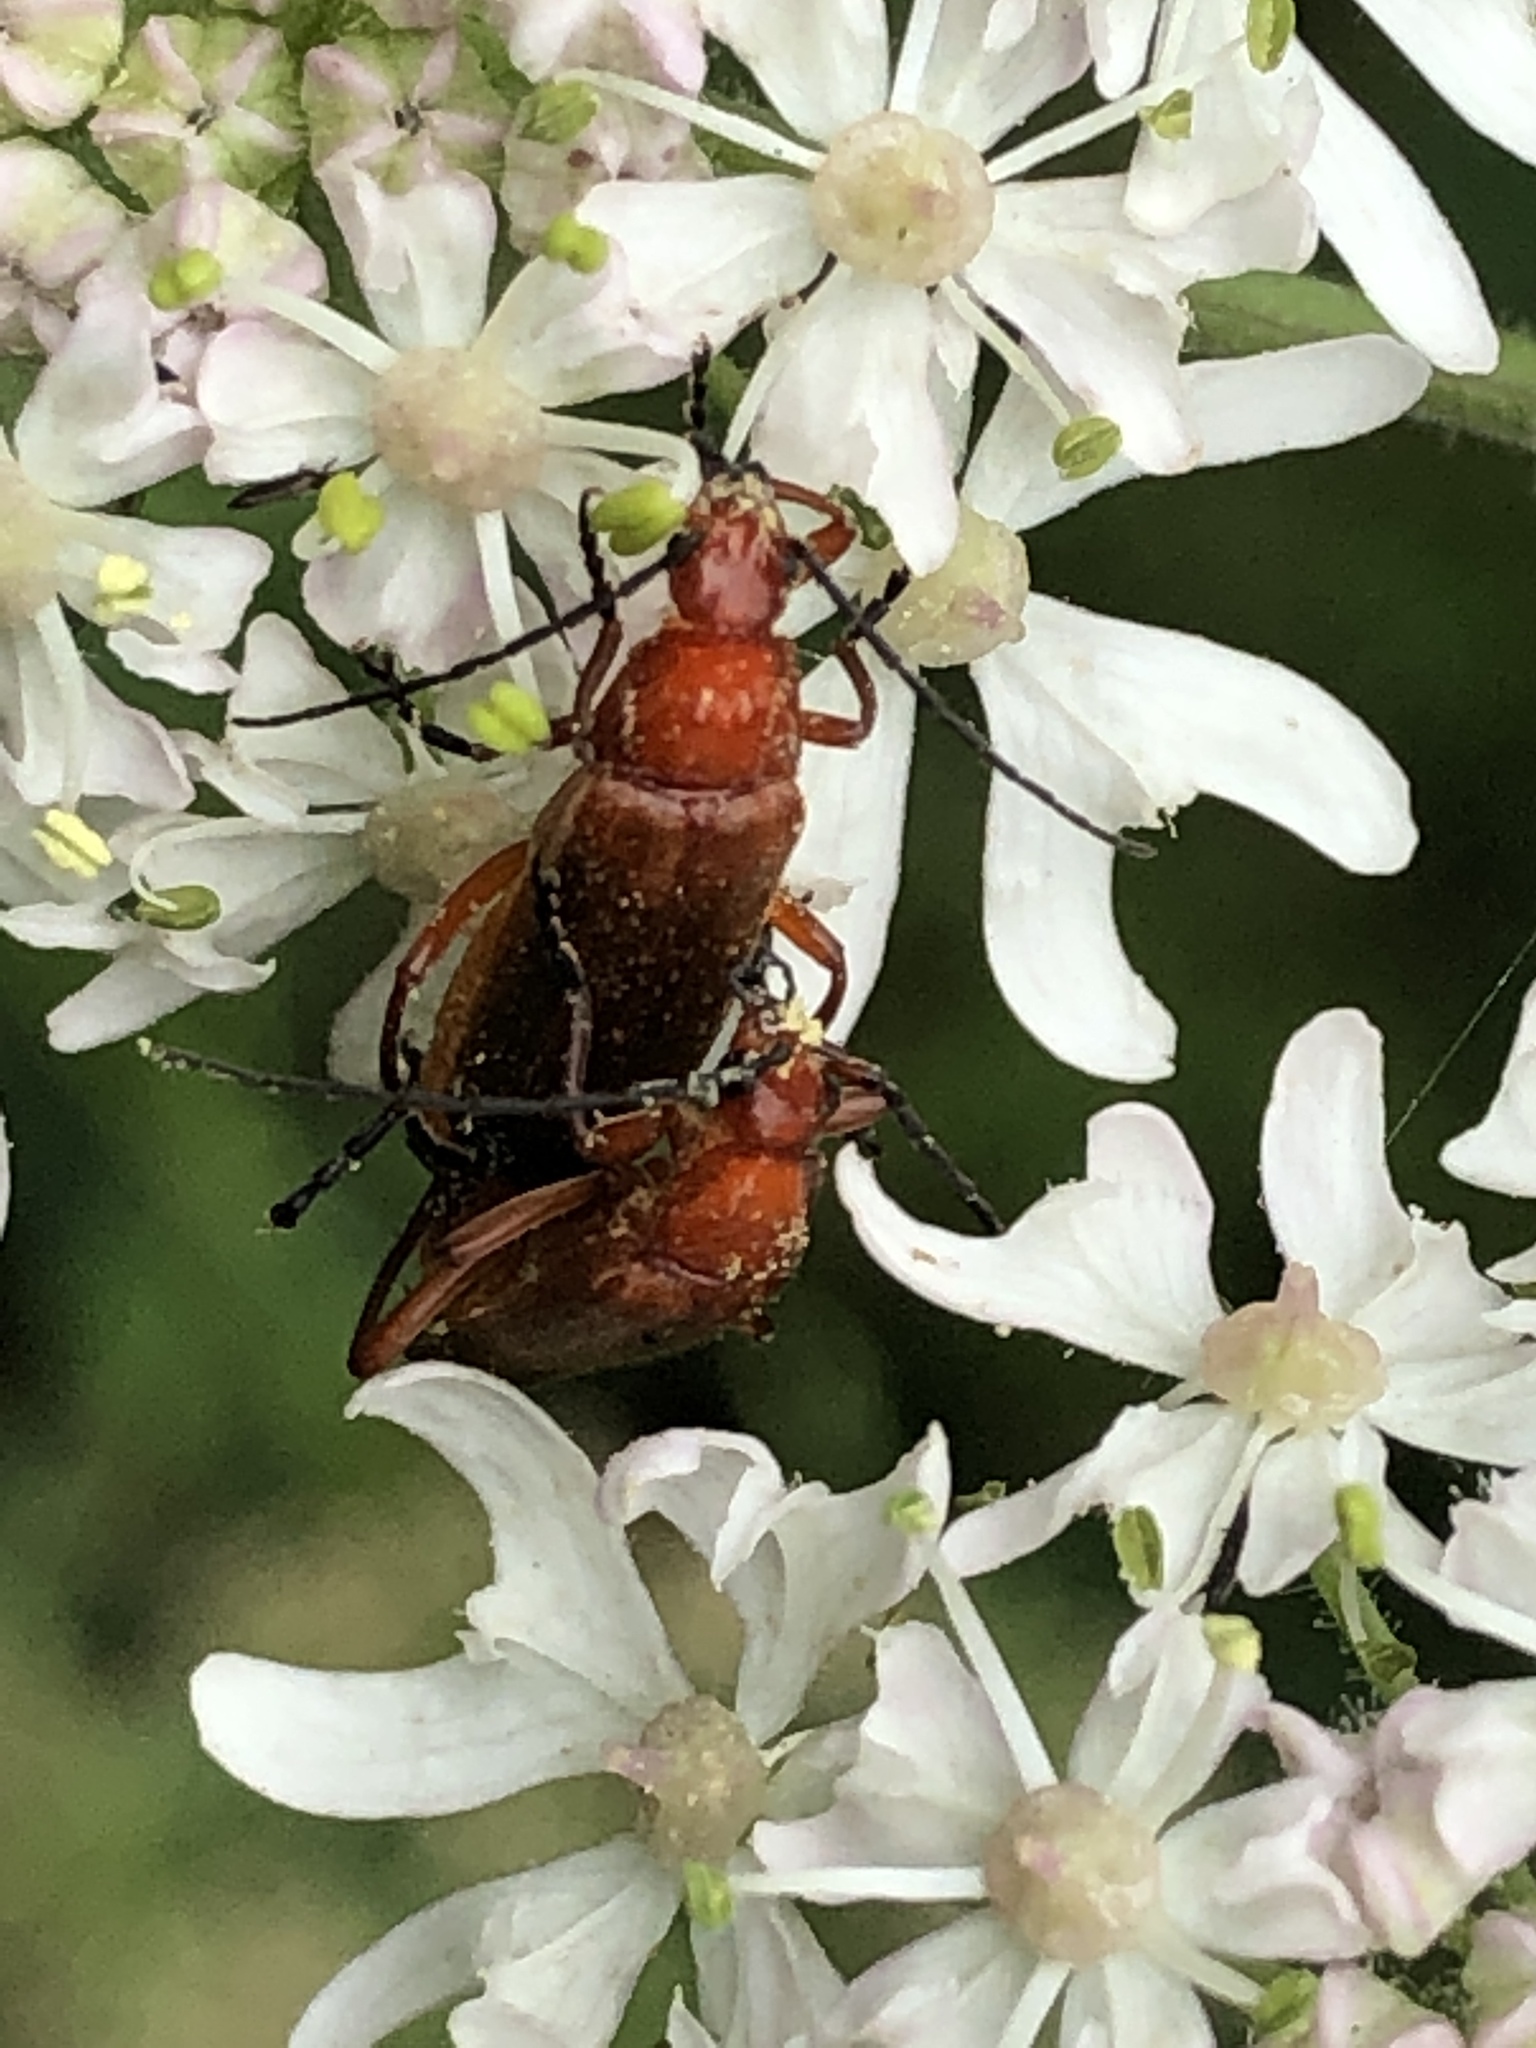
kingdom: Animalia
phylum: Arthropoda
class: Insecta
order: Coleoptera
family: Cantharidae
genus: Rhagonycha
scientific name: Rhagonycha fulva
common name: Common red soldier beetle
